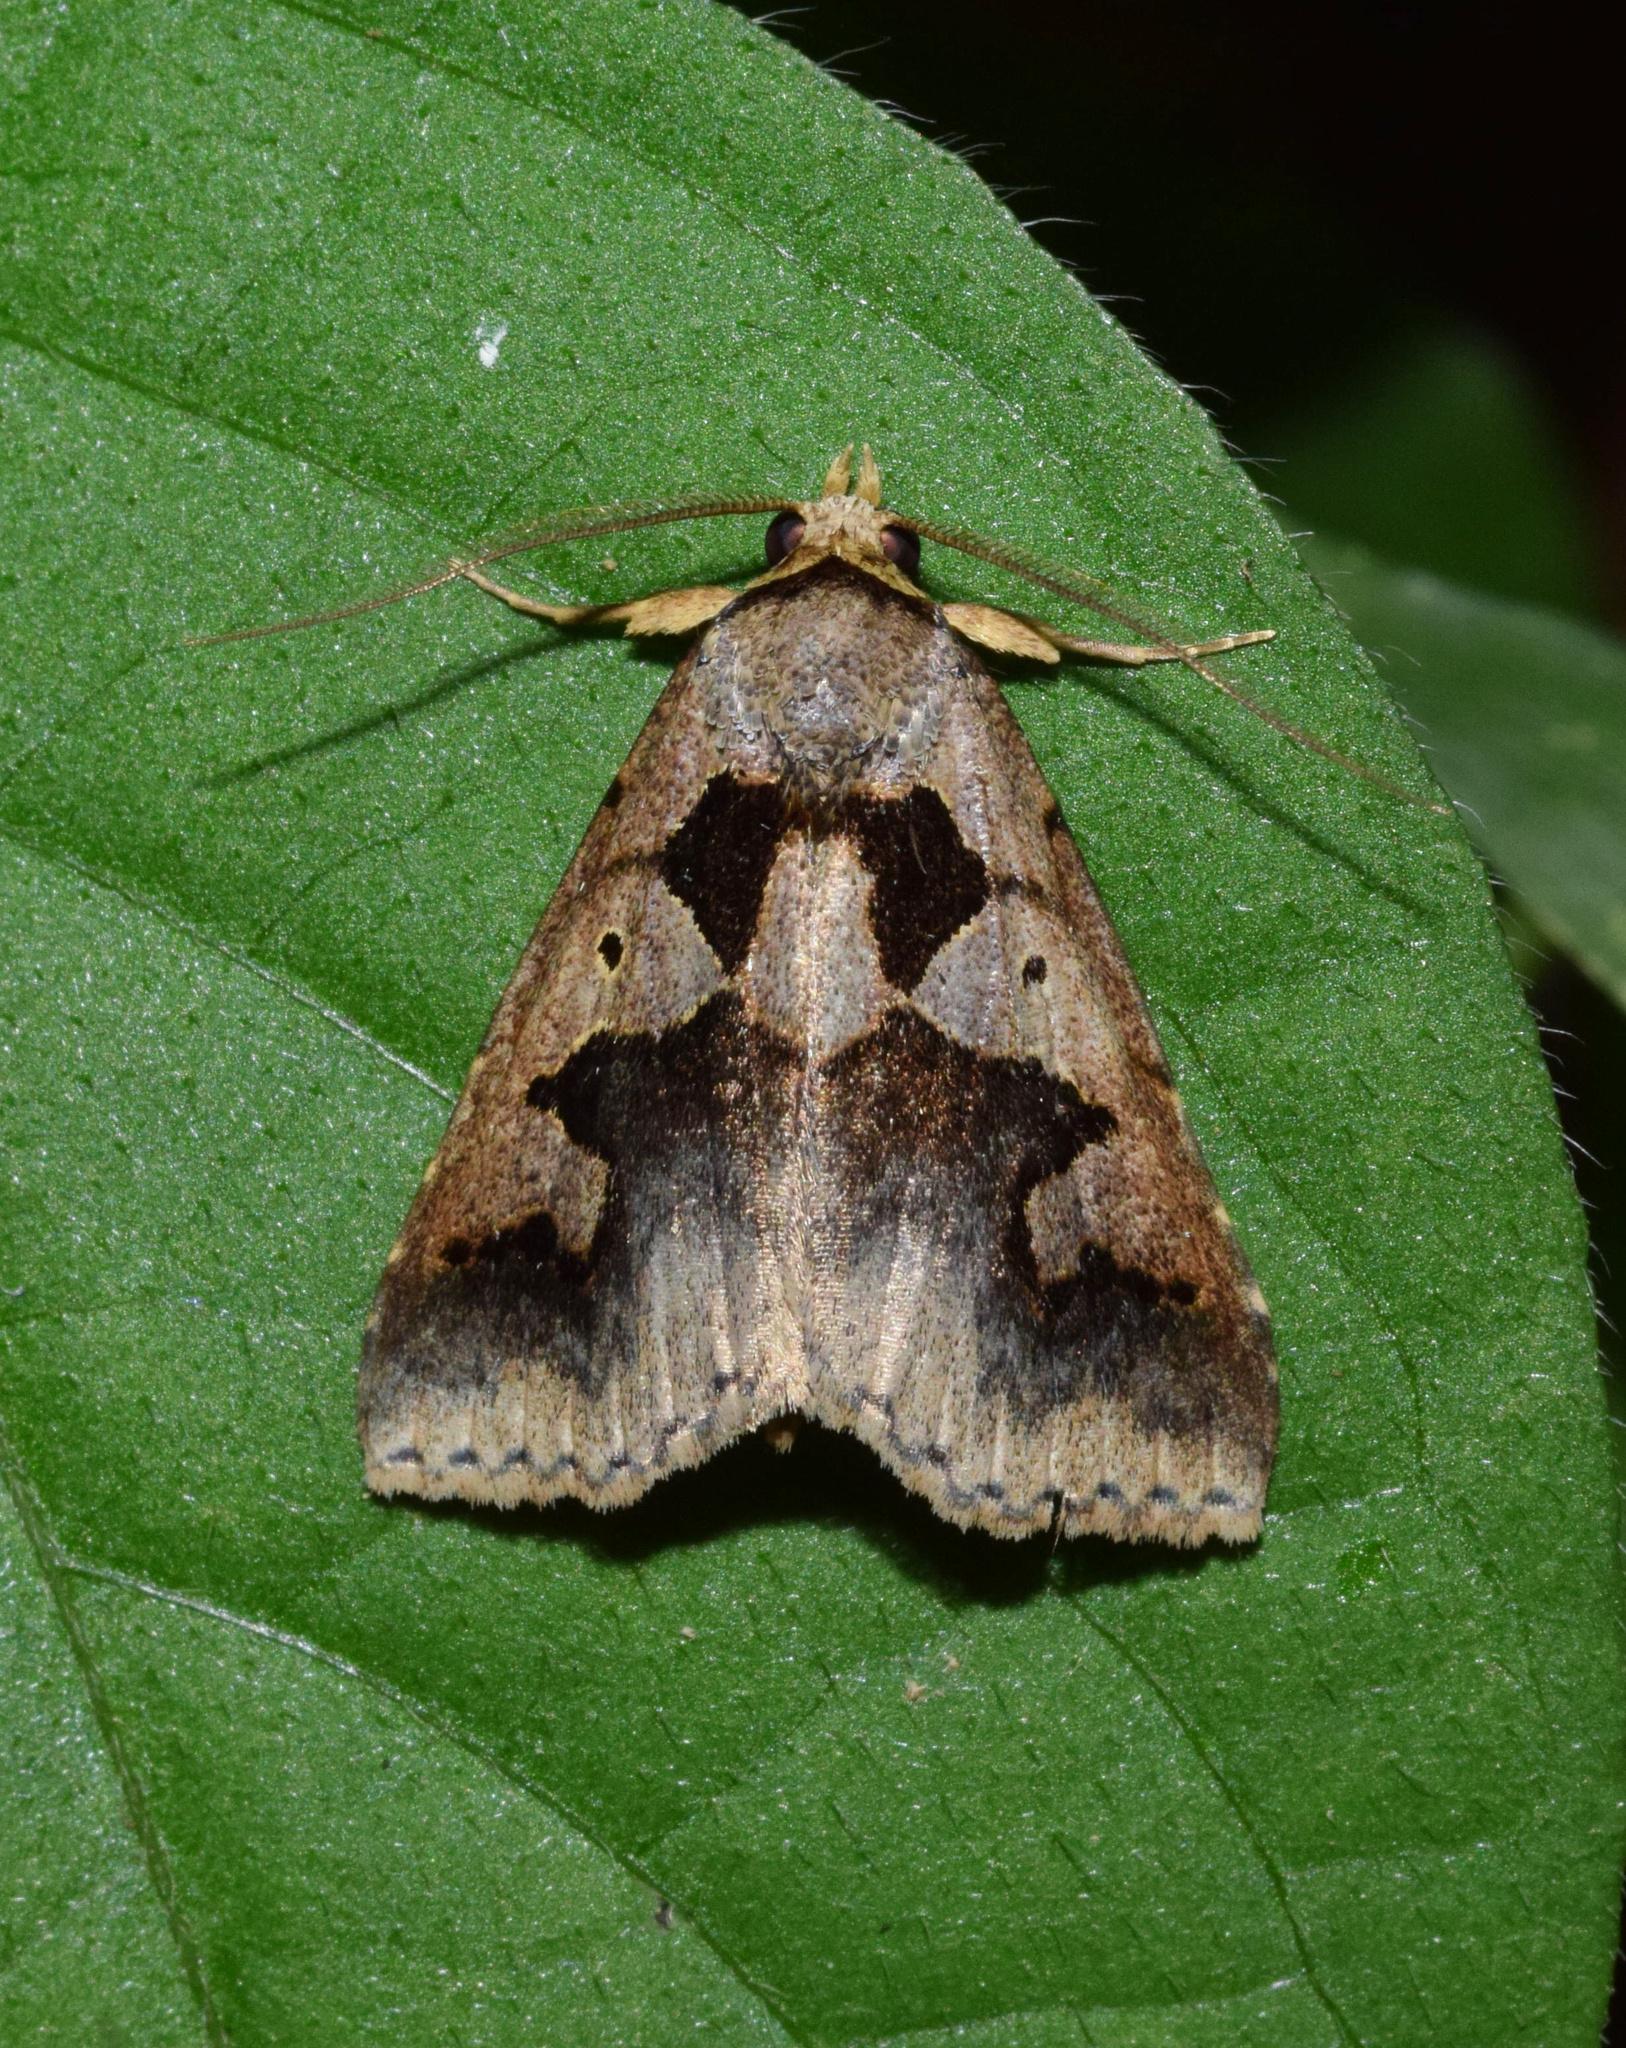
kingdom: Animalia
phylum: Arthropoda
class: Insecta
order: Lepidoptera
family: Erebidae
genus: Anoba
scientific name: Anoba disjuncta
